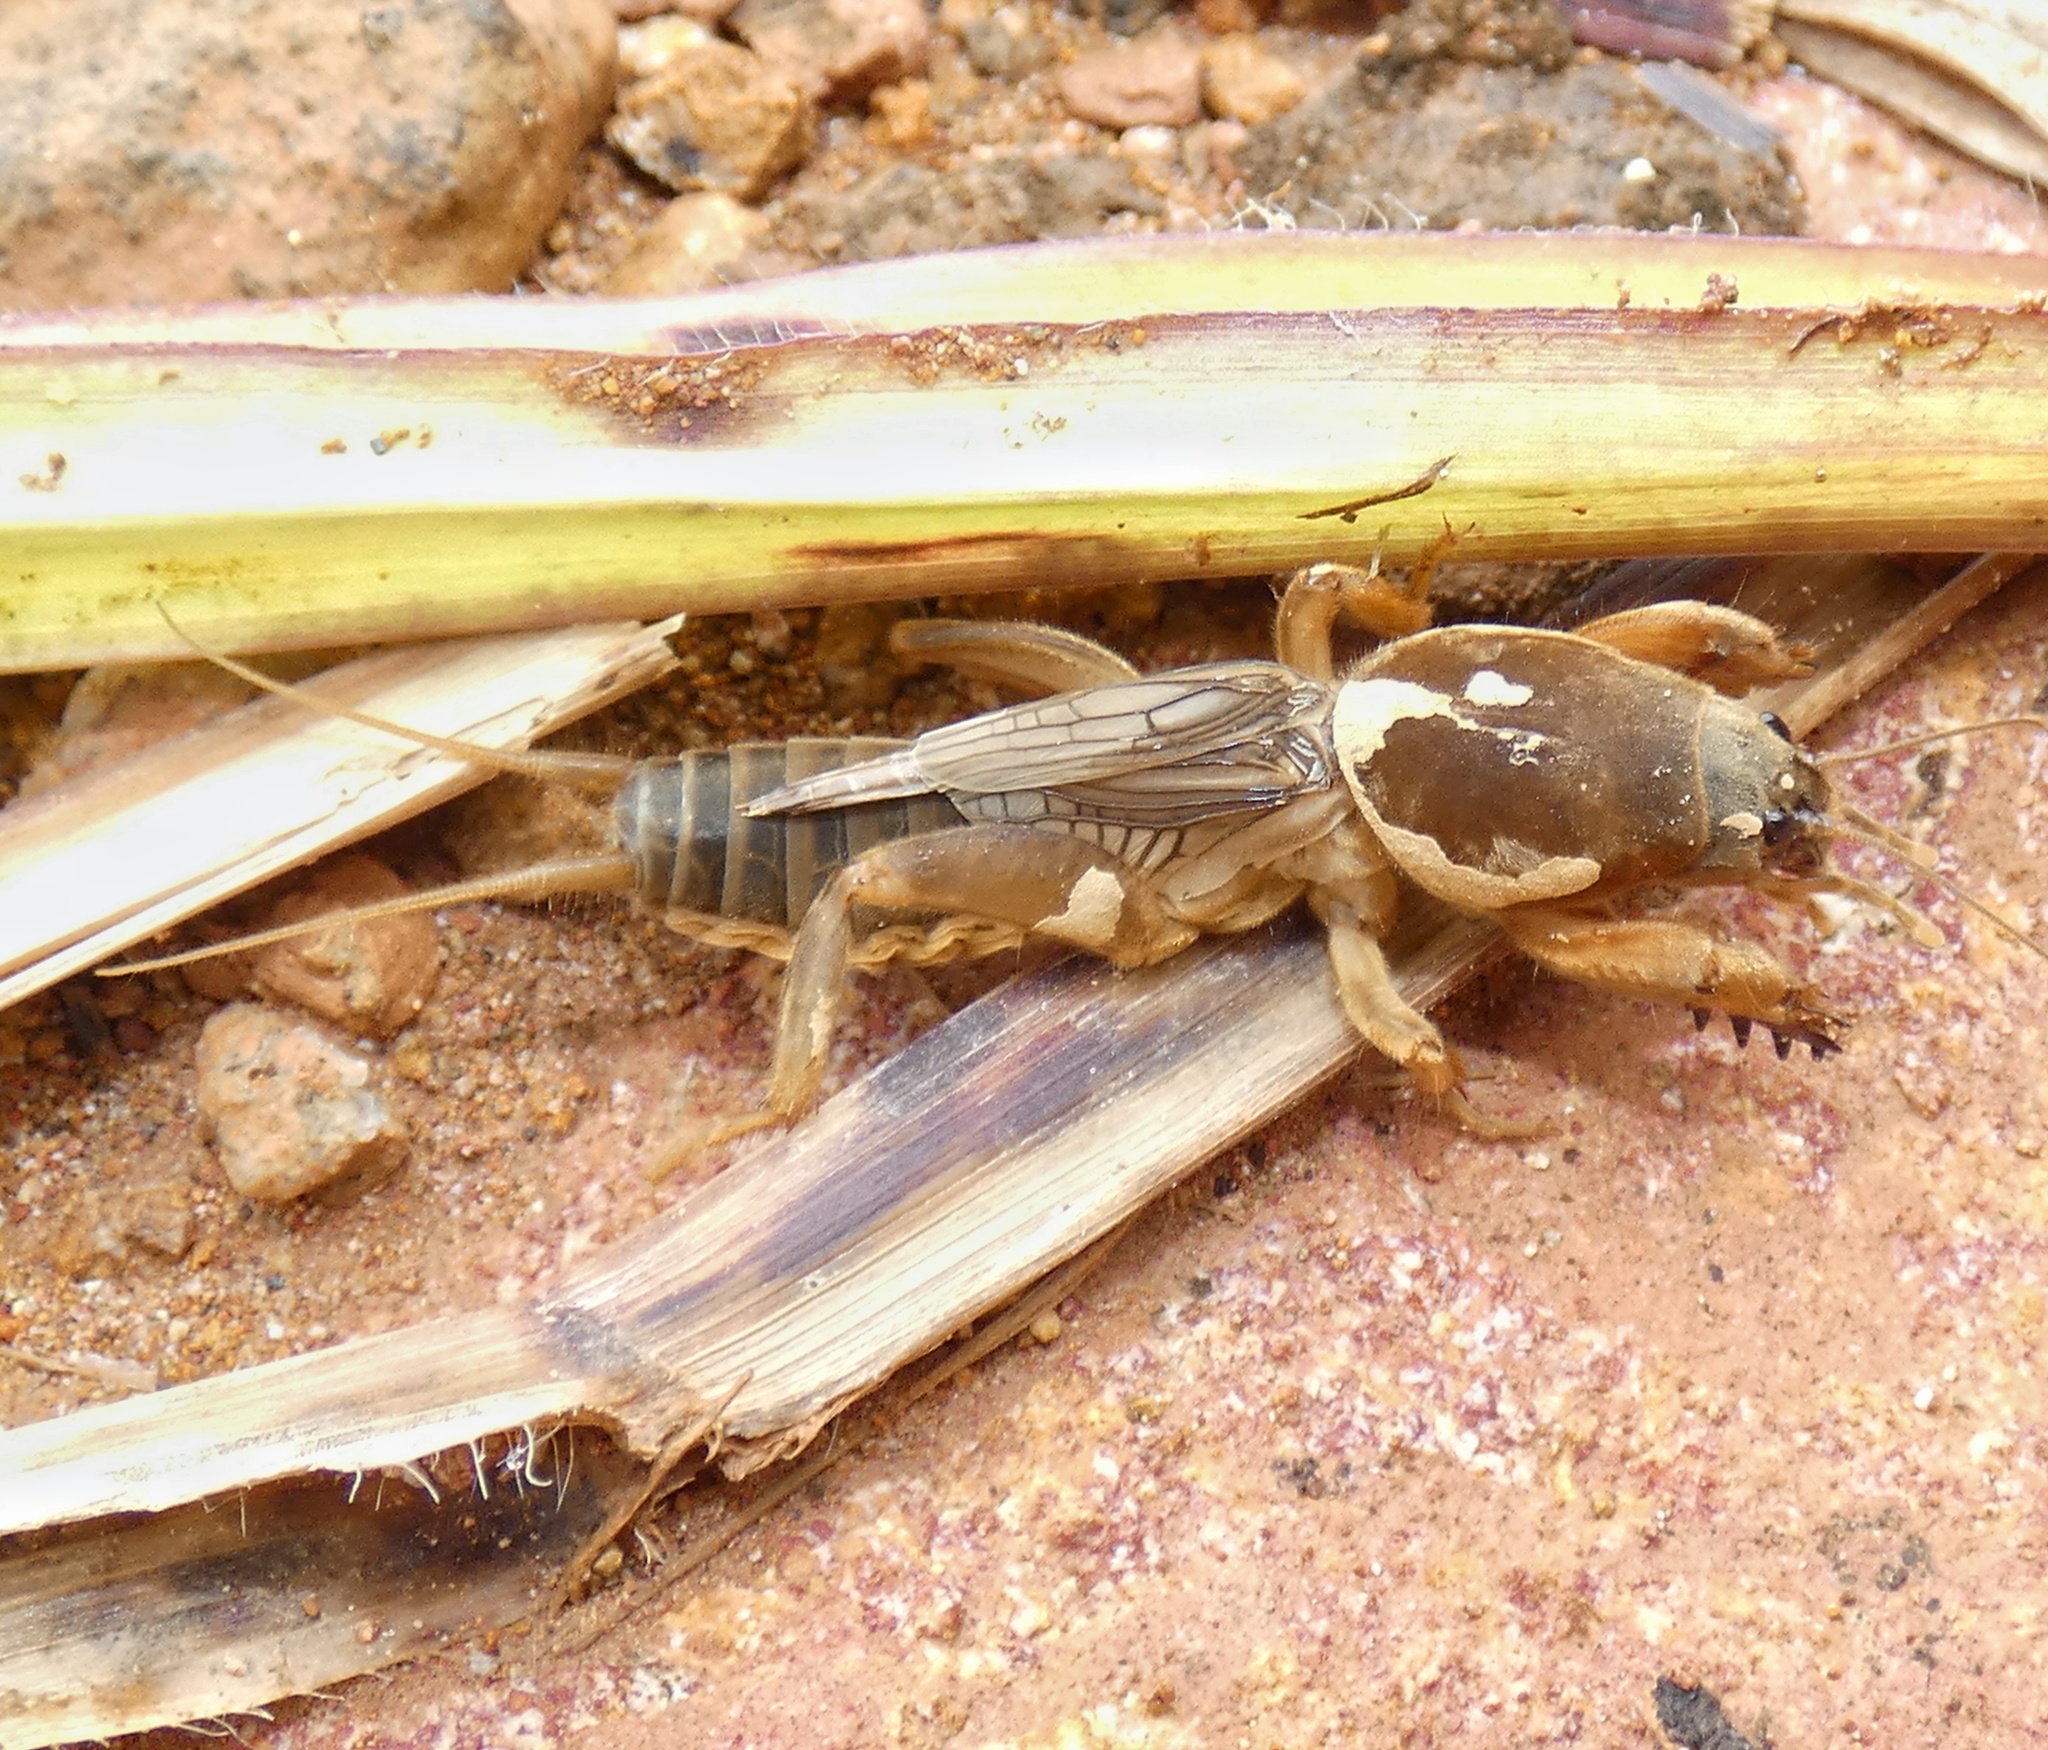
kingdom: Animalia
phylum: Arthropoda
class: Insecta
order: Orthoptera
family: Gryllotalpidae
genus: Neocurtilla
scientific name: Neocurtilla hexadactyla
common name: Northern mole cricket
